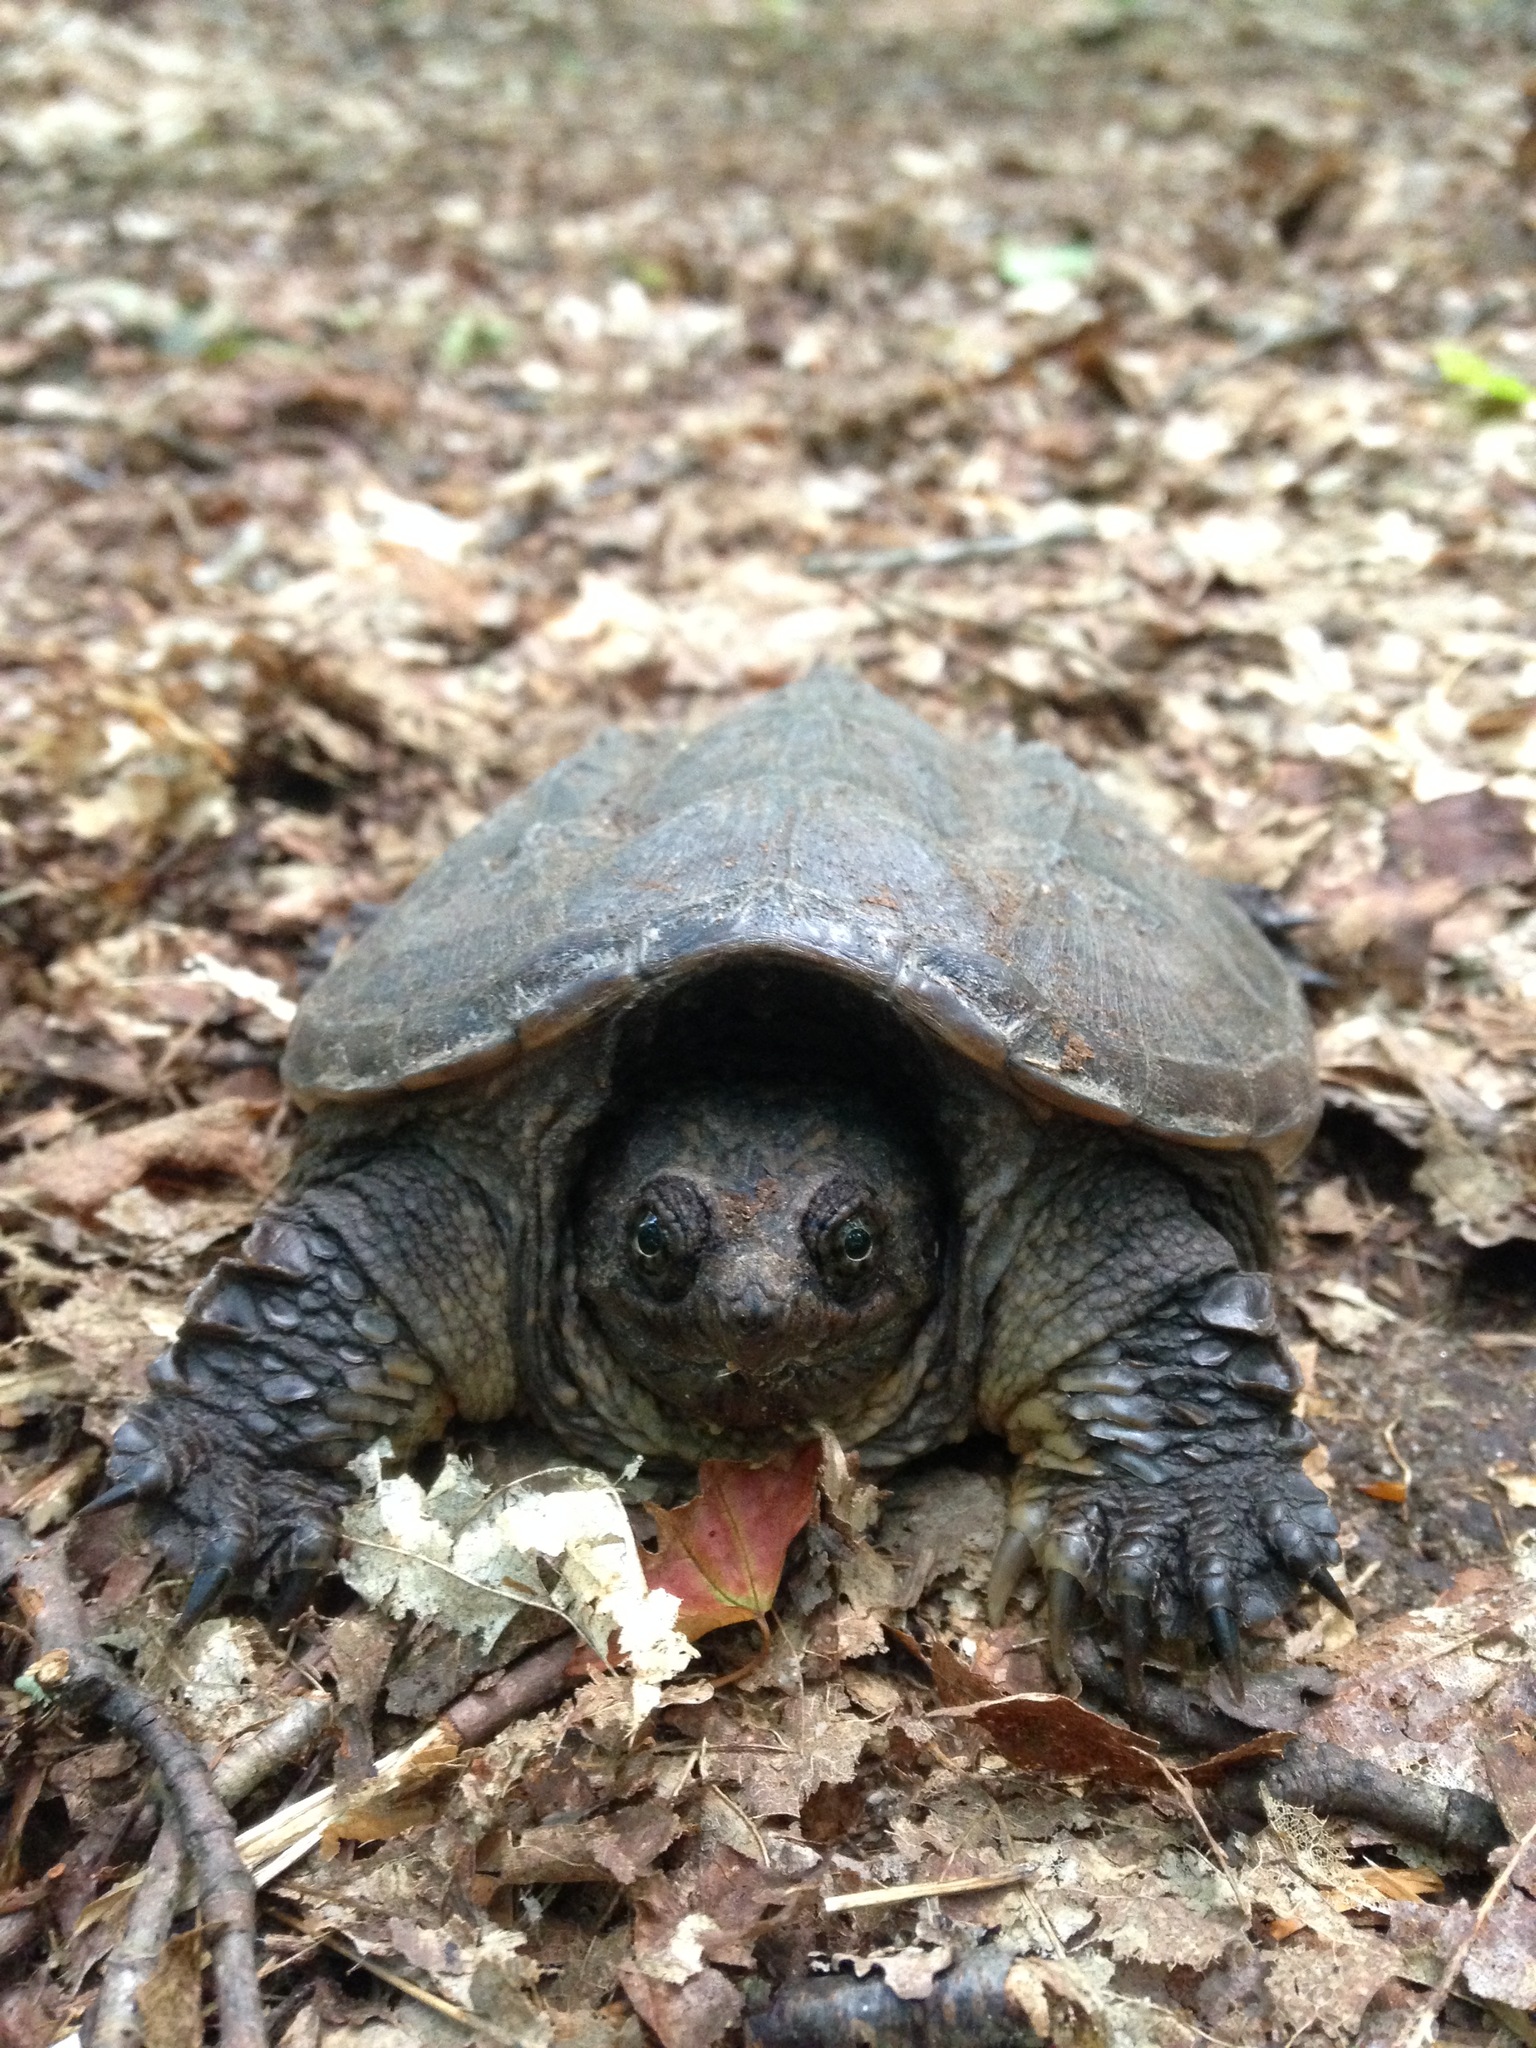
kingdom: Animalia
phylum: Chordata
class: Testudines
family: Chelydridae
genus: Chelydra
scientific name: Chelydra serpentina
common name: Common snapping turtle
